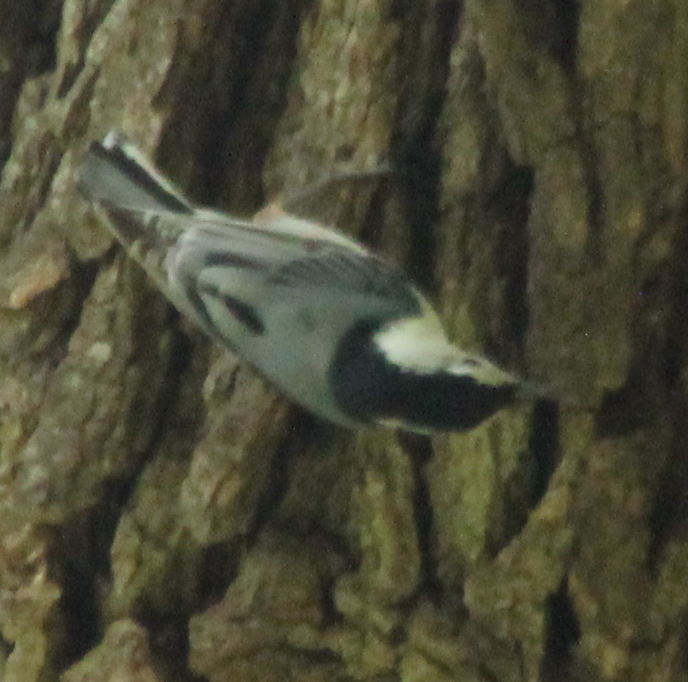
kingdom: Animalia
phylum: Chordata
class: Aves
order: Passeriformes
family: Sittidae
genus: Sitta
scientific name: Sitta carolinensis
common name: White-breasted nuthatch
